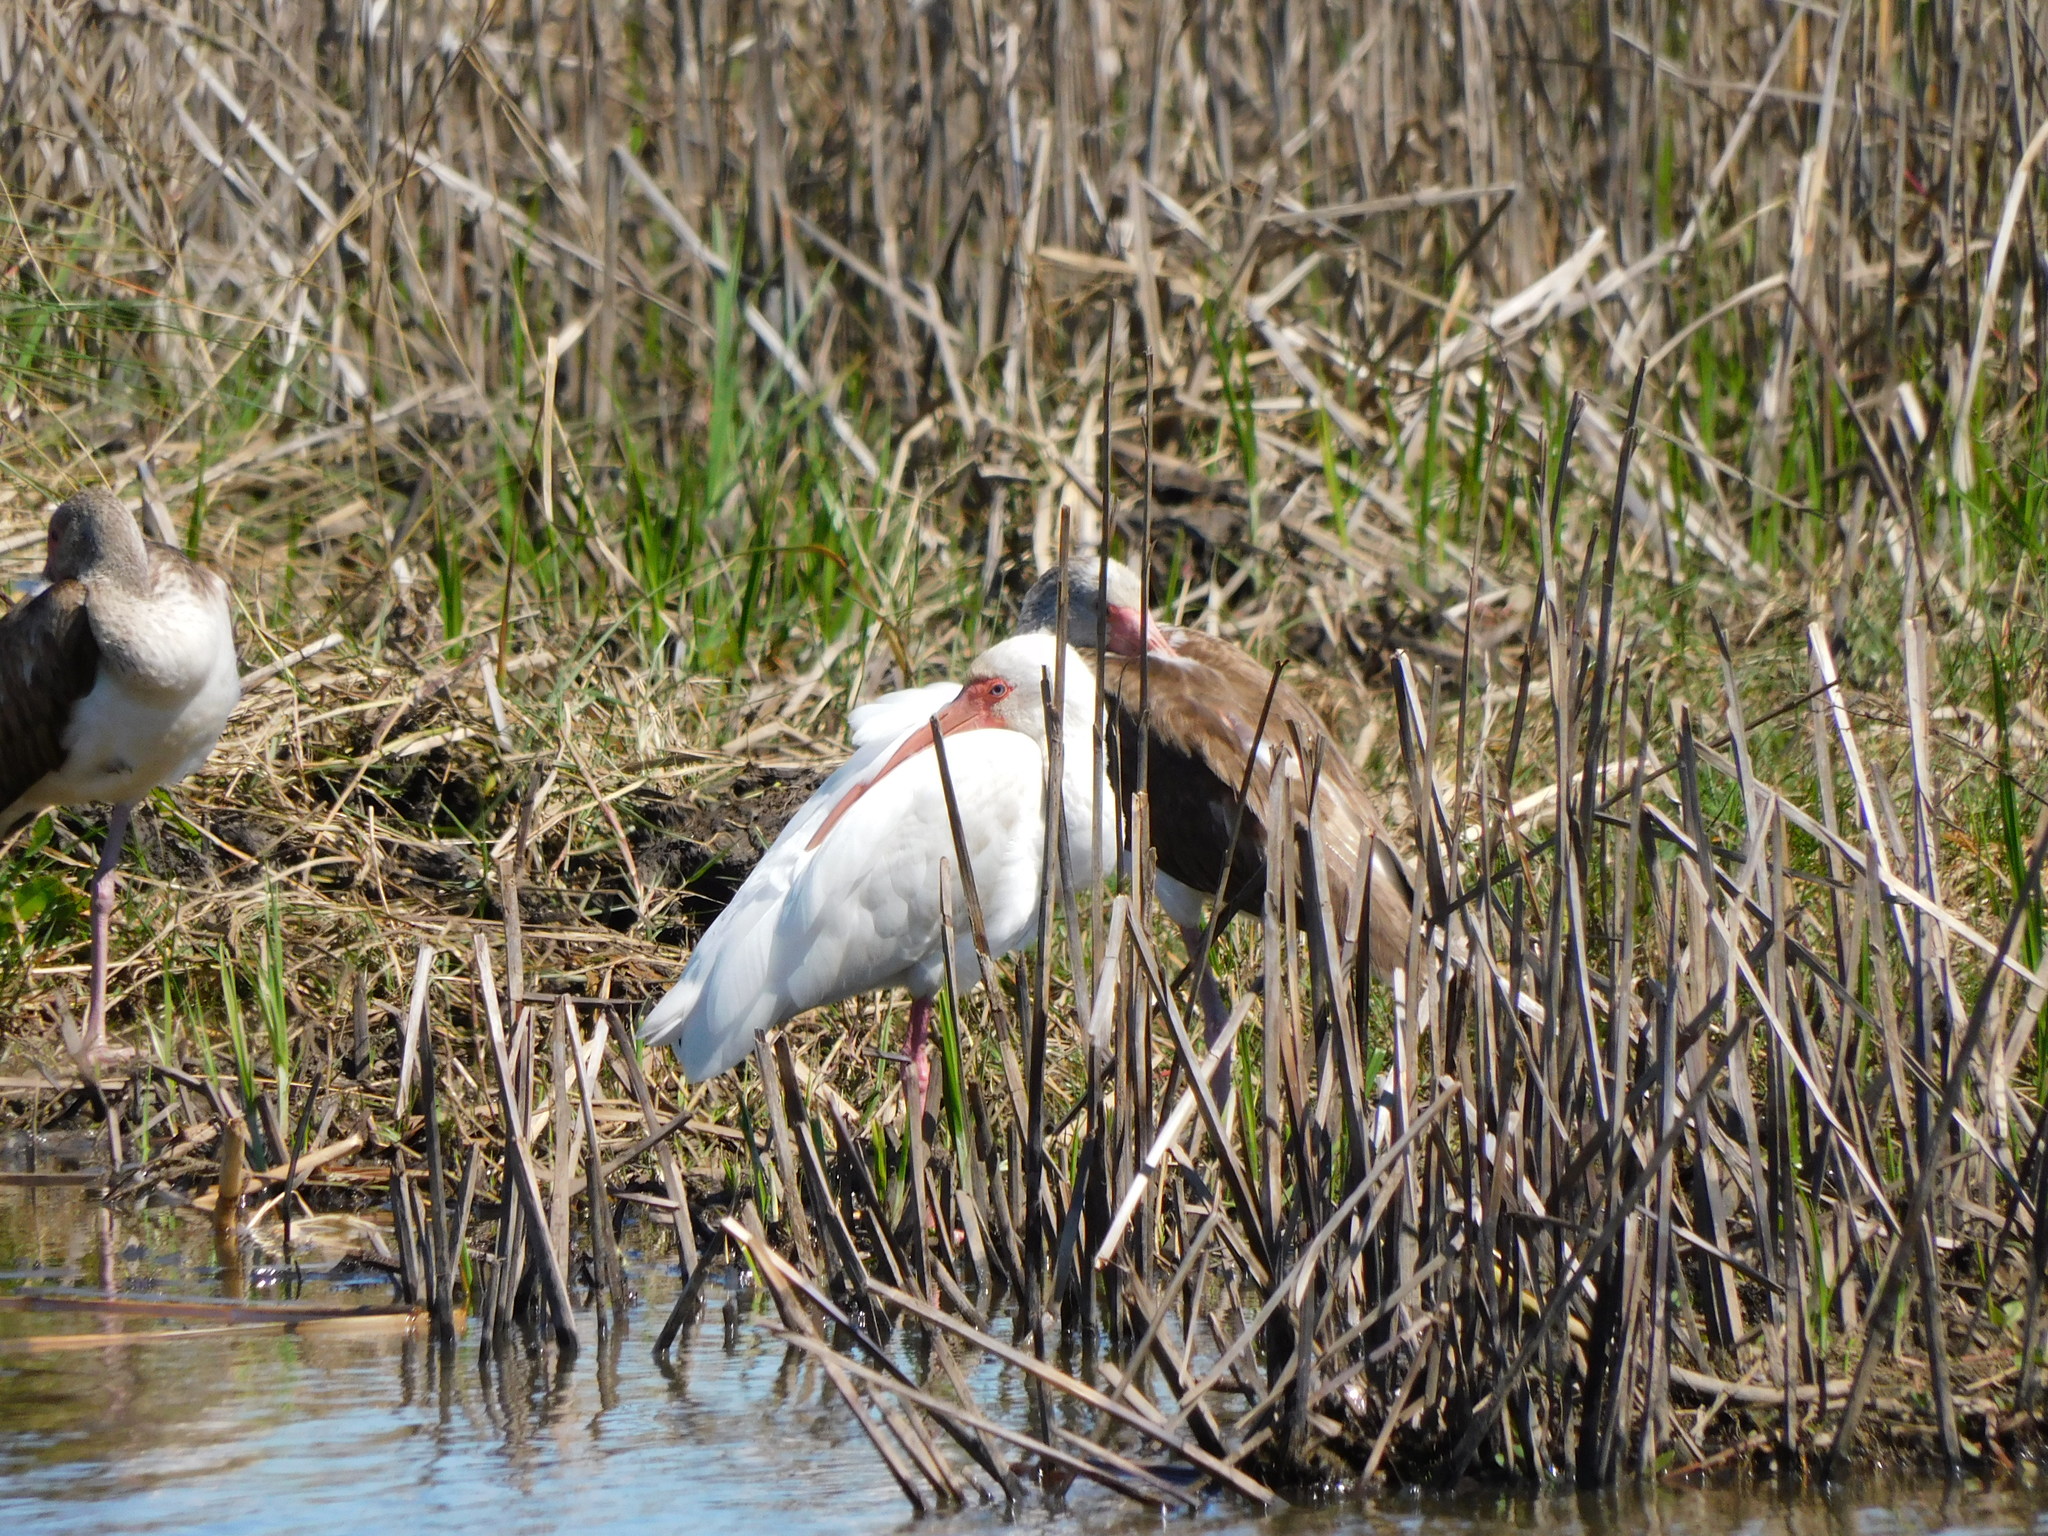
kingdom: Animalia
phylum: Chordata
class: Aves
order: Pelecaniformes
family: Threskiornithidae
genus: Eudocimus
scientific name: Eudocimus albus
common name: White ibis
